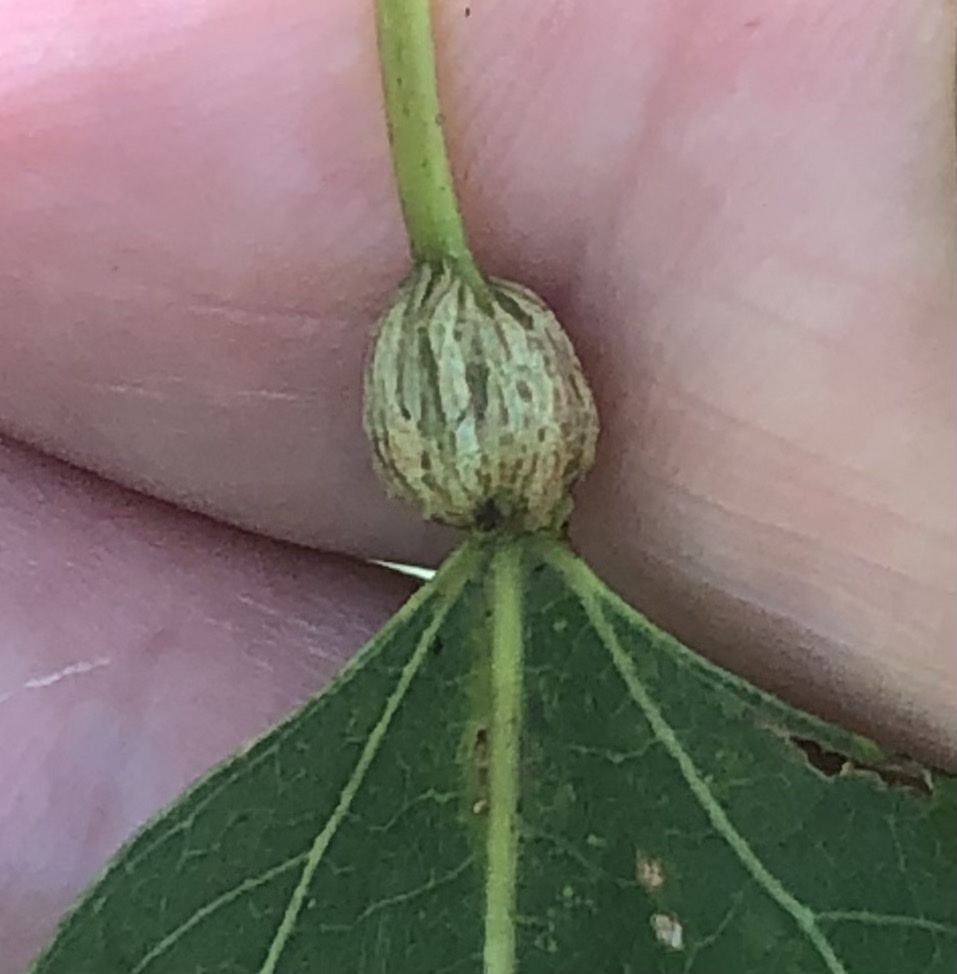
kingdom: Animalia
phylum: Arthropoda
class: Insecta
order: Lepidoptera
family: Nepticulidae
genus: Ectoedemia
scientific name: Ectoedemia populella
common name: Aspen petiole gall moth
